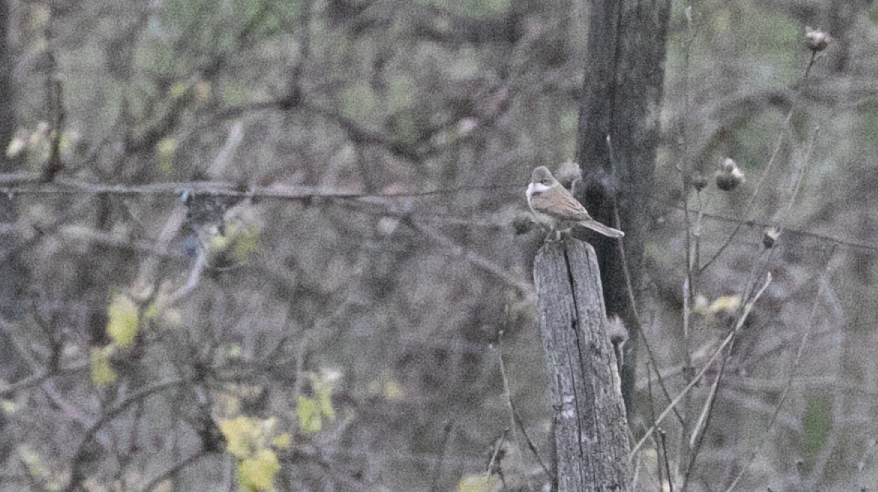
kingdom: Animalia
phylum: Chordata
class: Aves
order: Passeriformes
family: Sylviidae
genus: Sylvia
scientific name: Sylvia communis
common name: Common whitethroat
